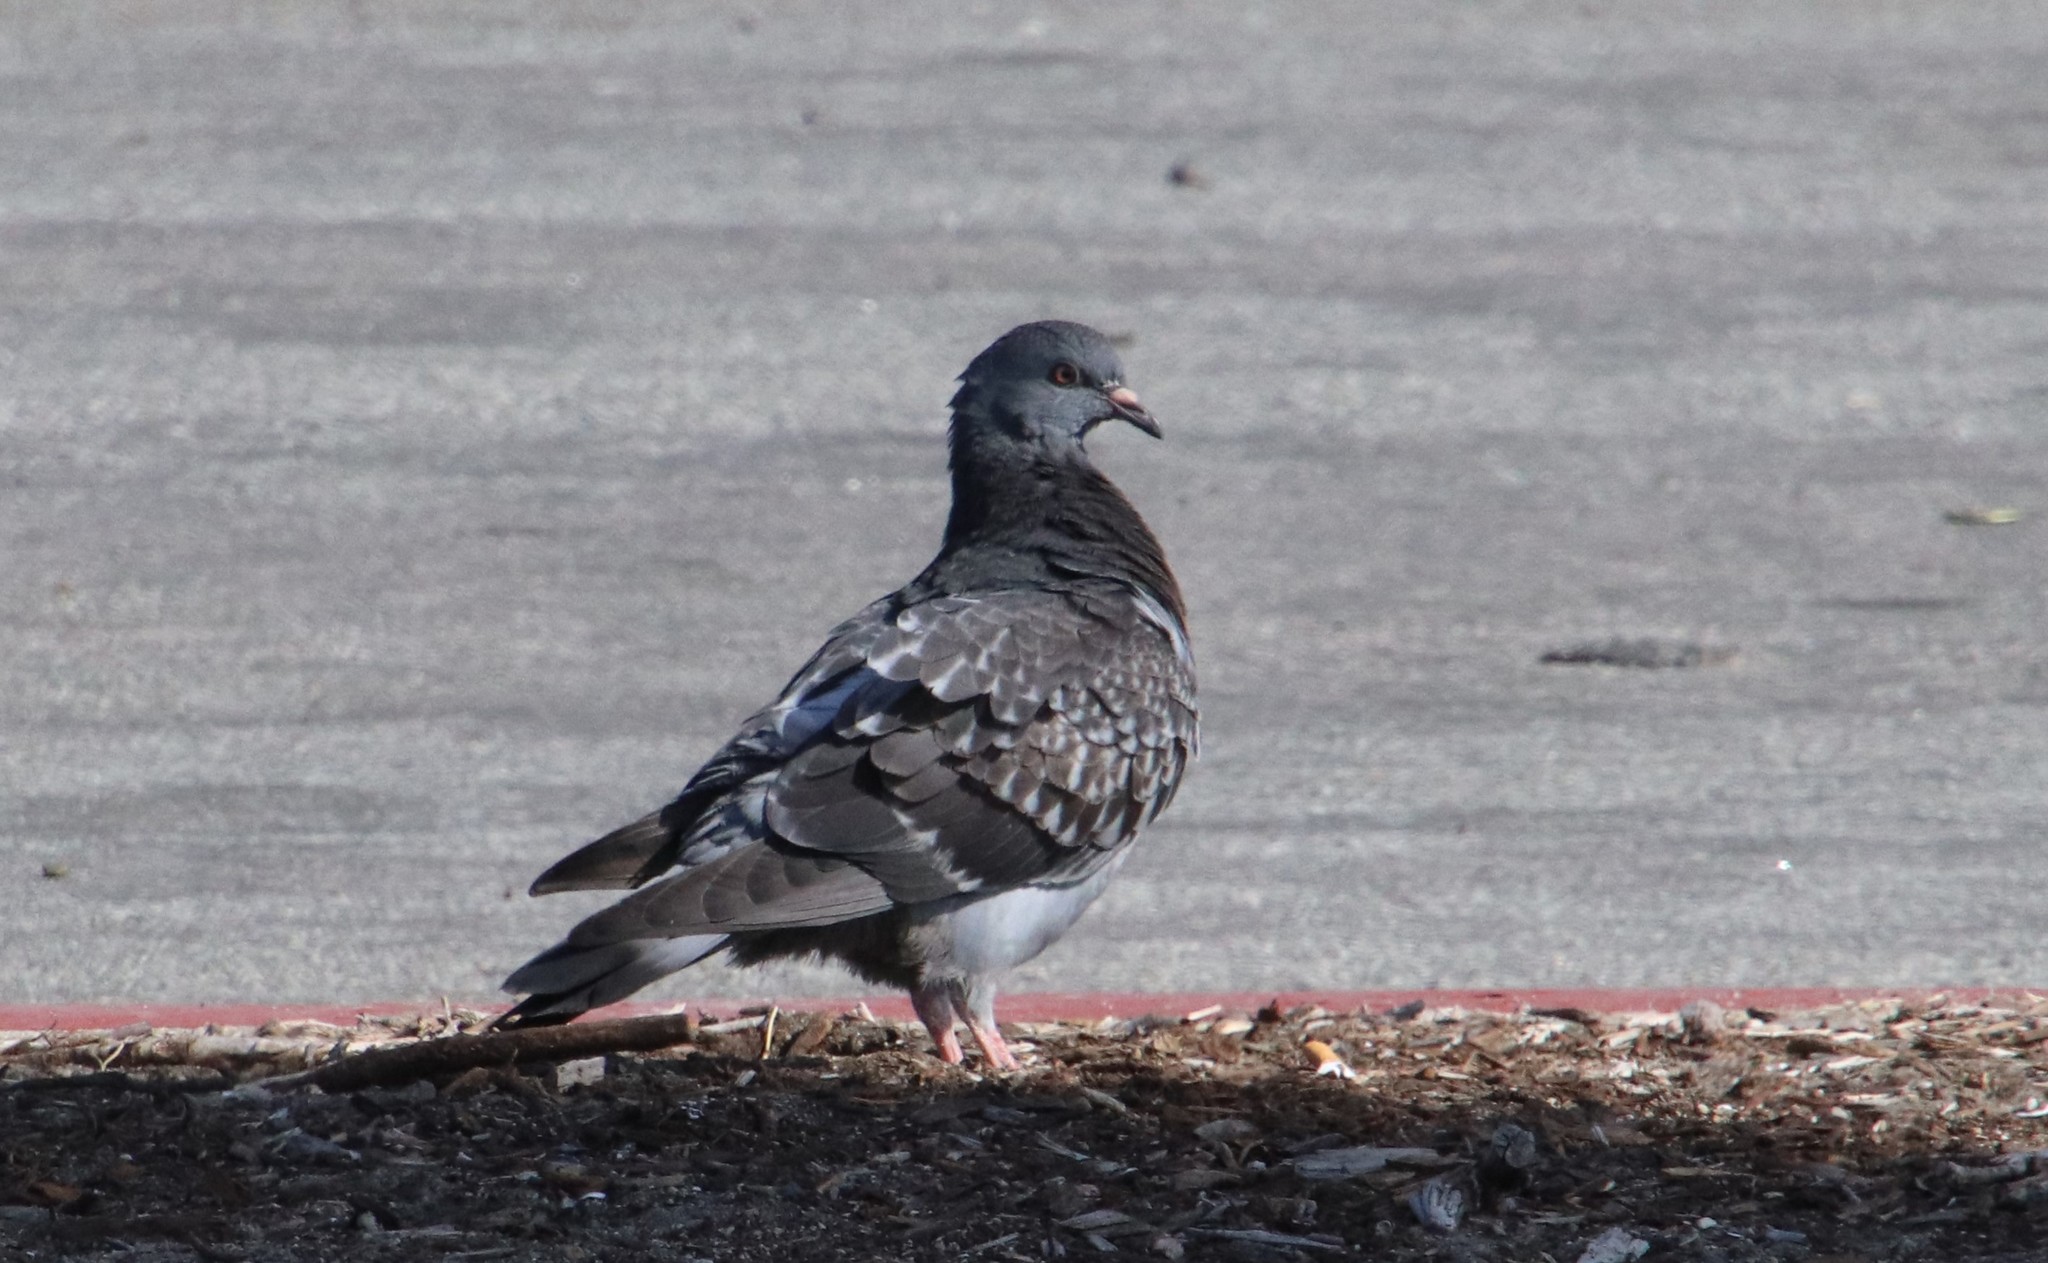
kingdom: Animalia
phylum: Chordata
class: Aves
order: Columbiformes
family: Columbidae
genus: Columba
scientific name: Columba livia
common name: Rock pigeon
